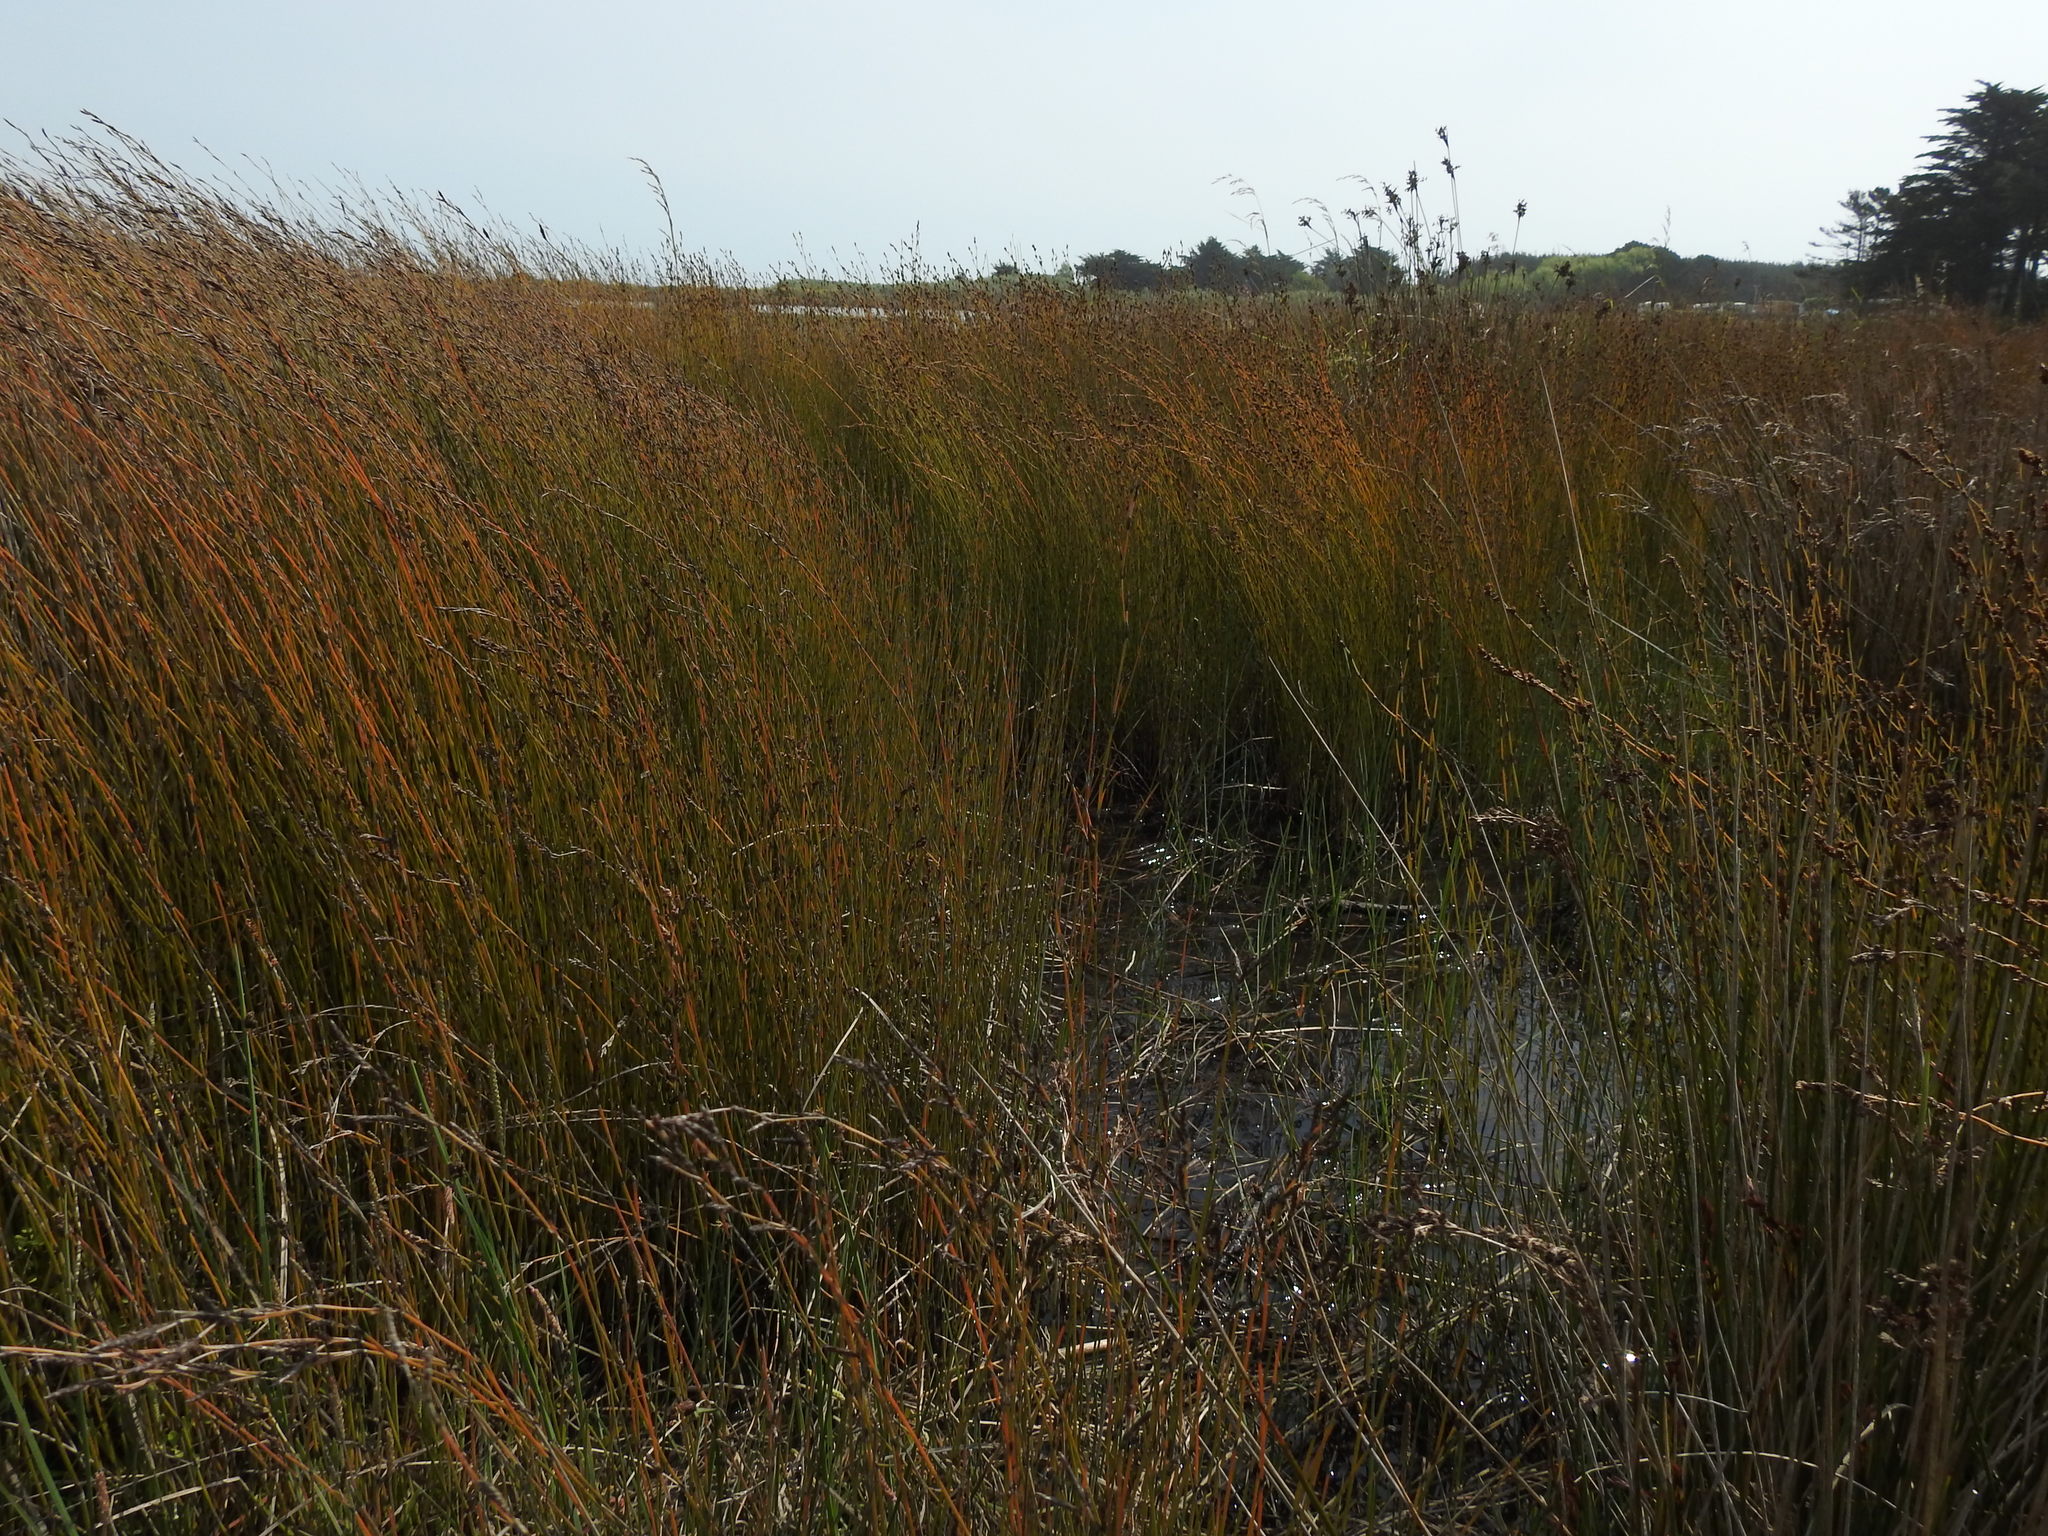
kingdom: Plantae
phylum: Tracheophyta
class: Liliopsida
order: Poales
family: Restionaceae
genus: Apodasmia
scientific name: Apodasmia similis
